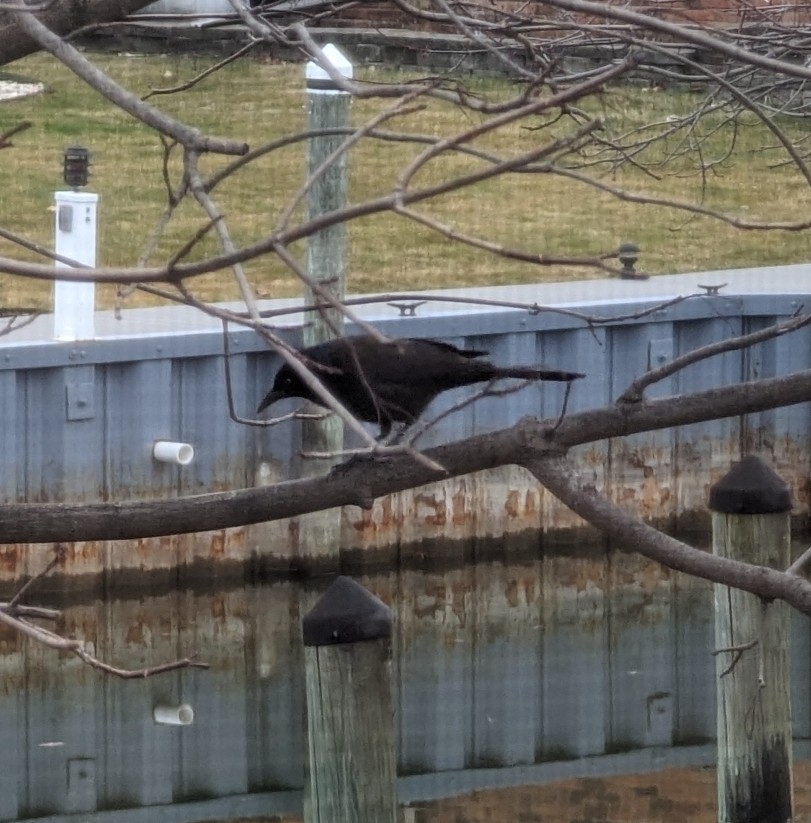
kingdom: Animalia
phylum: Chordata
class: Aves
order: Passeriformes
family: Icteridae
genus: Quiscalus
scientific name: Quiscalus quiscula
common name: Common grackle
